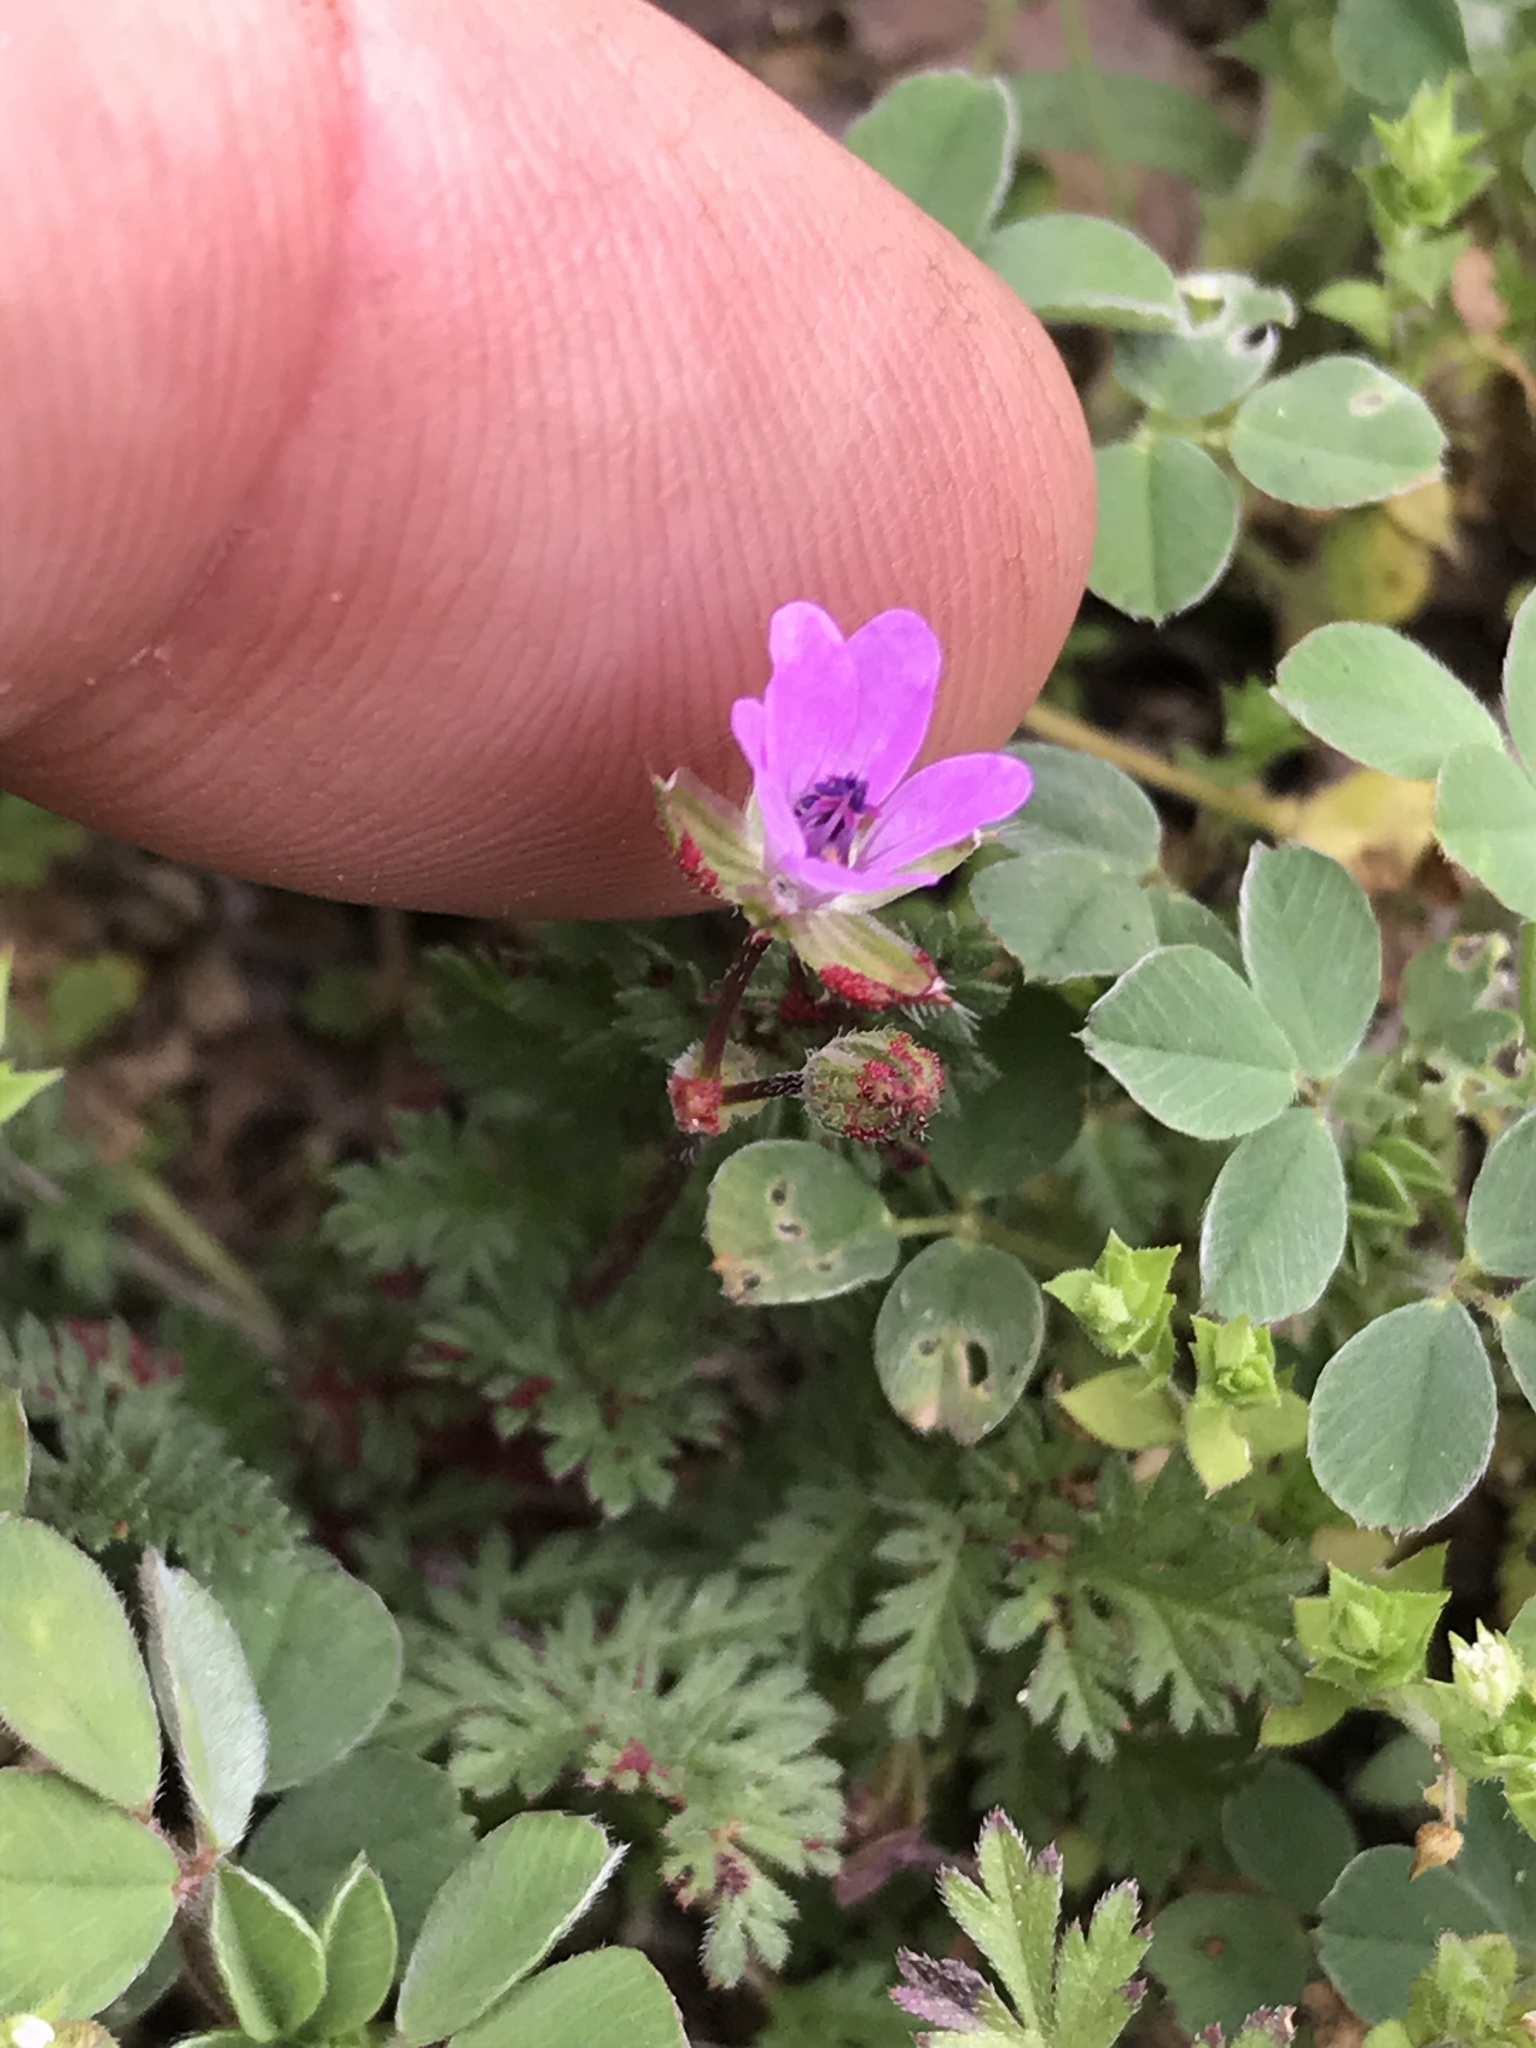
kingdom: Plantae
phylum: Tracheophyta
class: Magnoliopsida
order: Geraniales
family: Geraniaceae
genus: Erodium
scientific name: Erodium cicutarium
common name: Common stork's-bill
